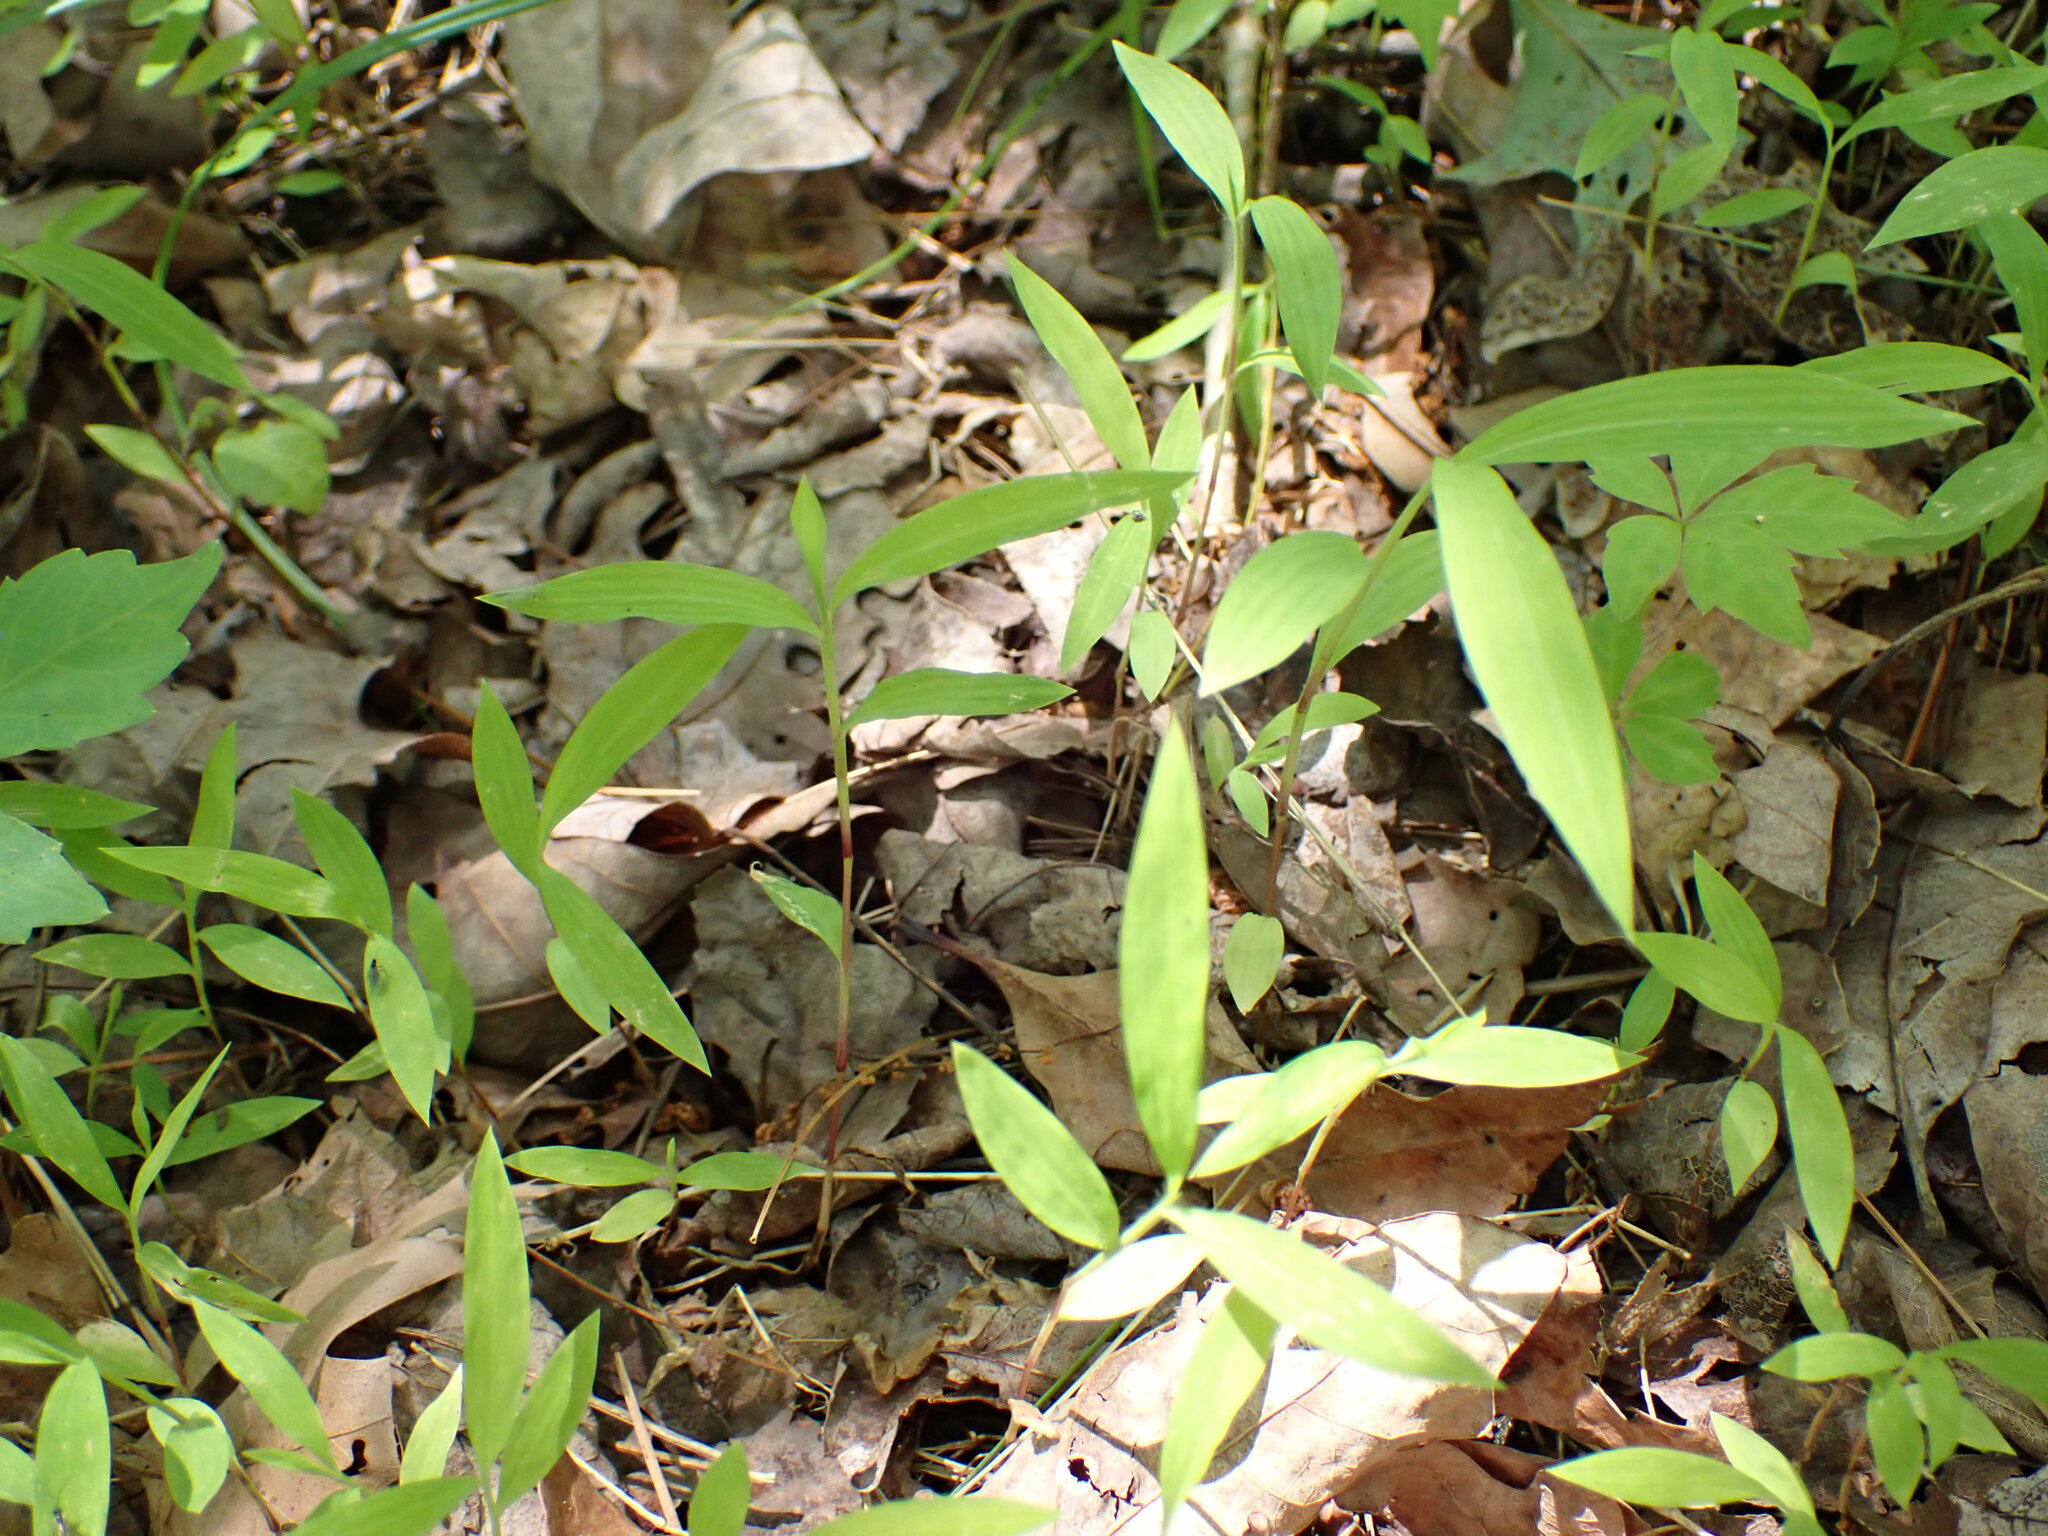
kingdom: Plantae
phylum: Tracheophyta
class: Liliopsida
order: Poales
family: Poaceae
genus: Microstegium
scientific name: Microstegium vimineum
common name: Japanese stiltgrass
